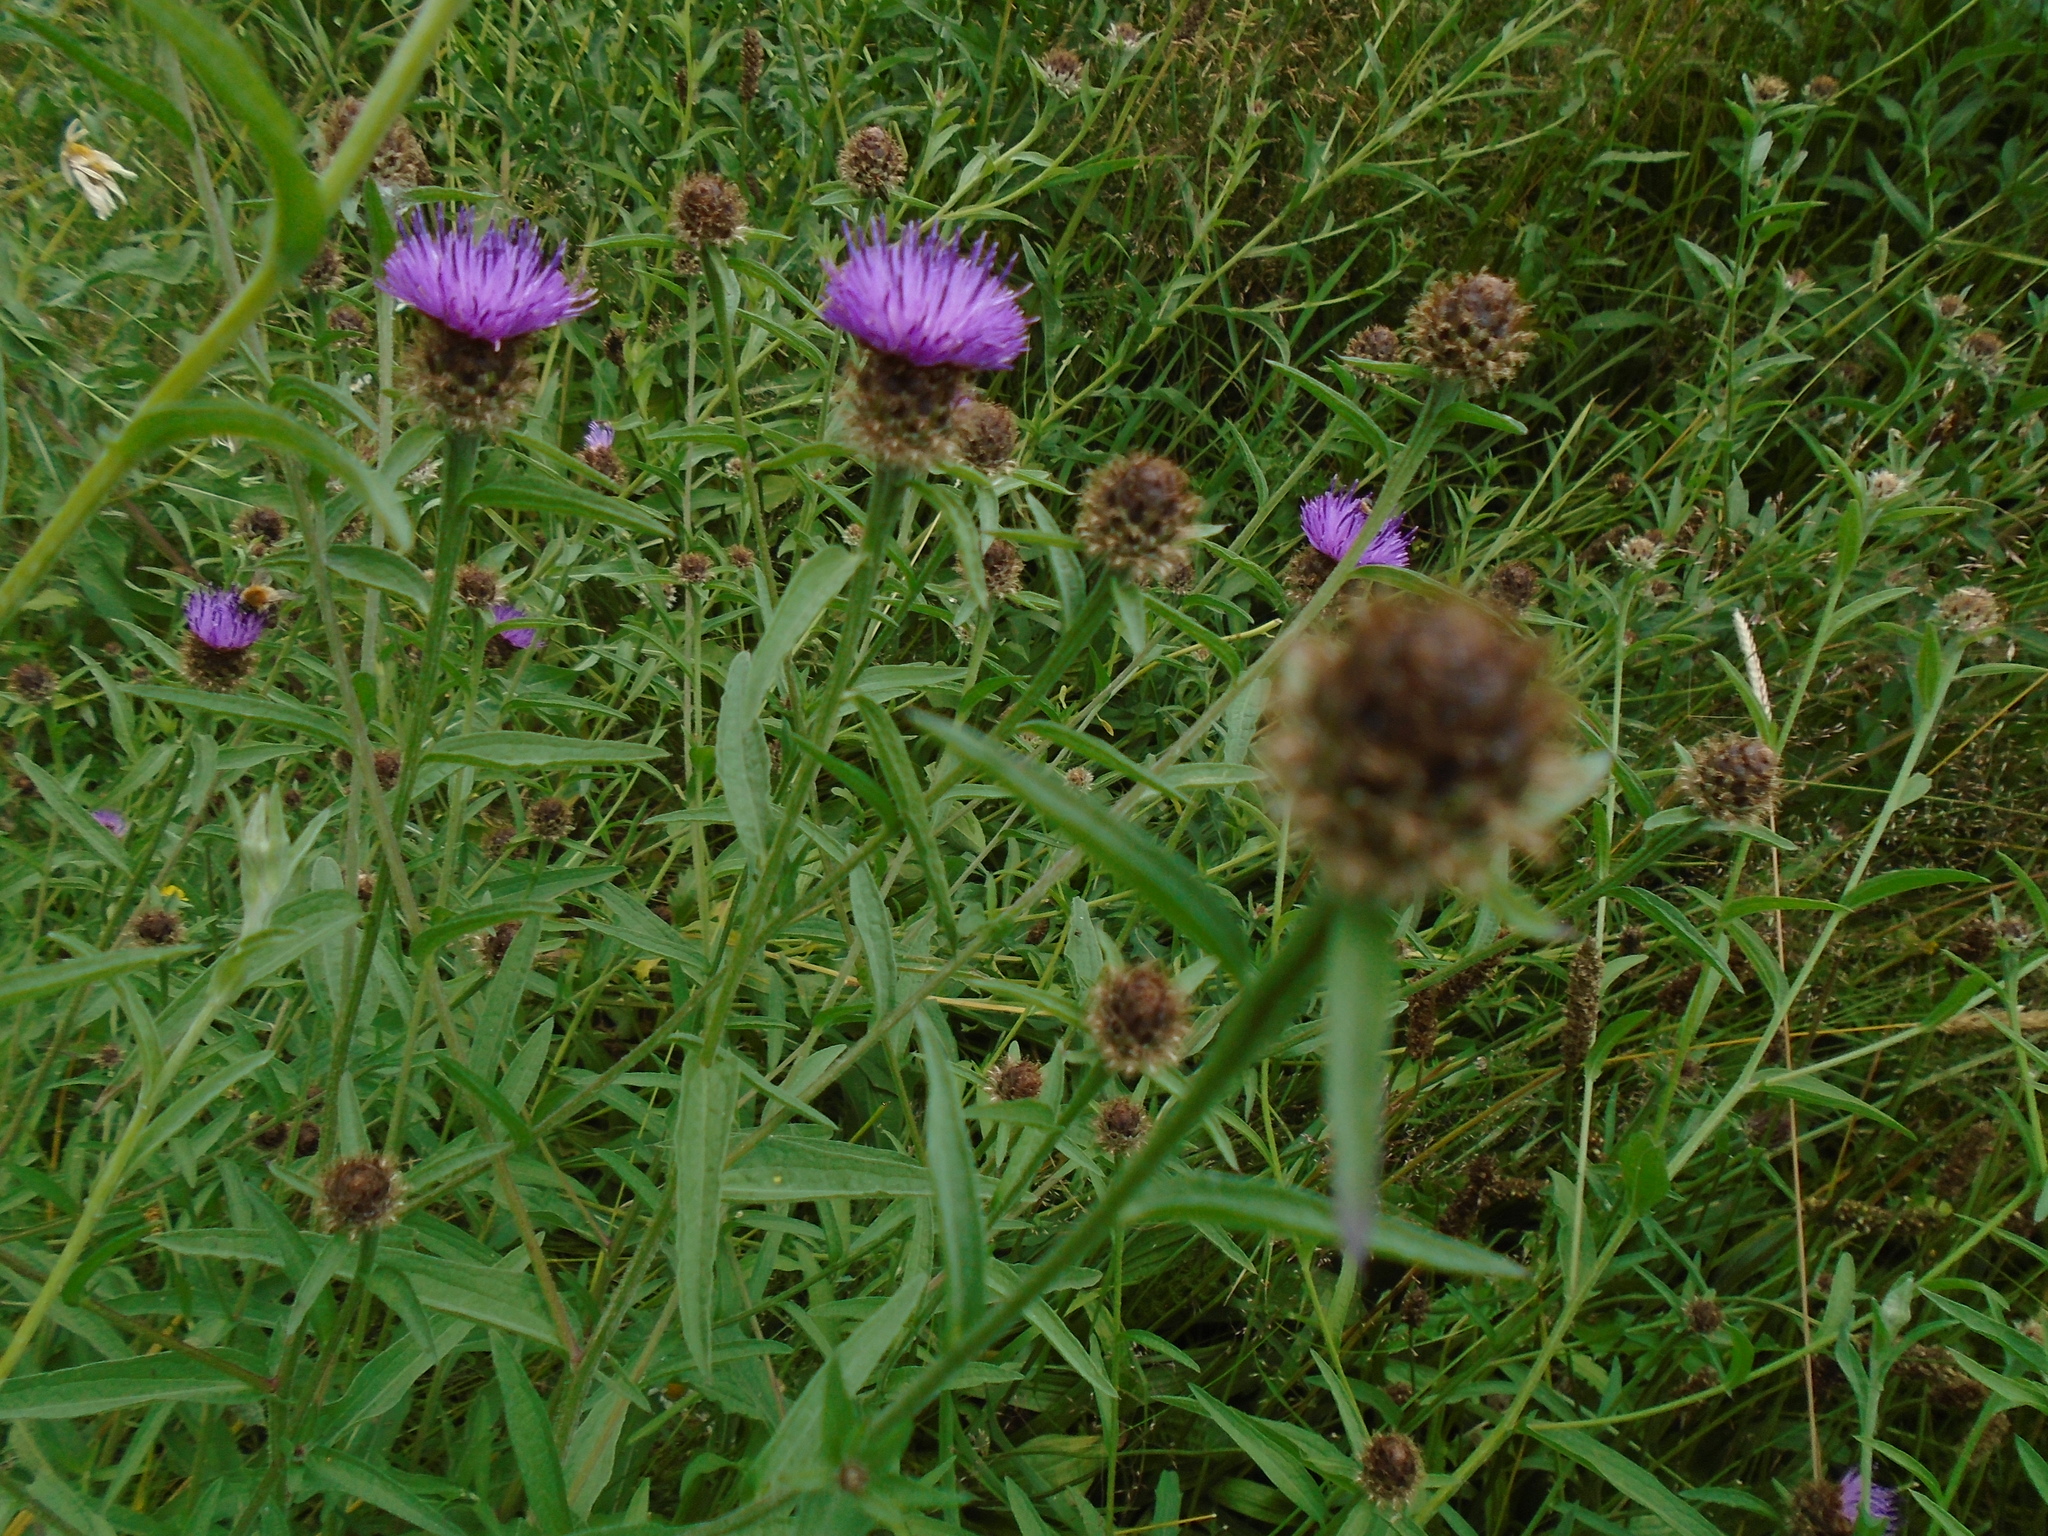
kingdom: Plantae
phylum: Tracheophyta
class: Magnoliopsida
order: Asterales
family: Asteraceae
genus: Centaurea
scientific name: Centaurea nigra
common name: Lesser knapweed
